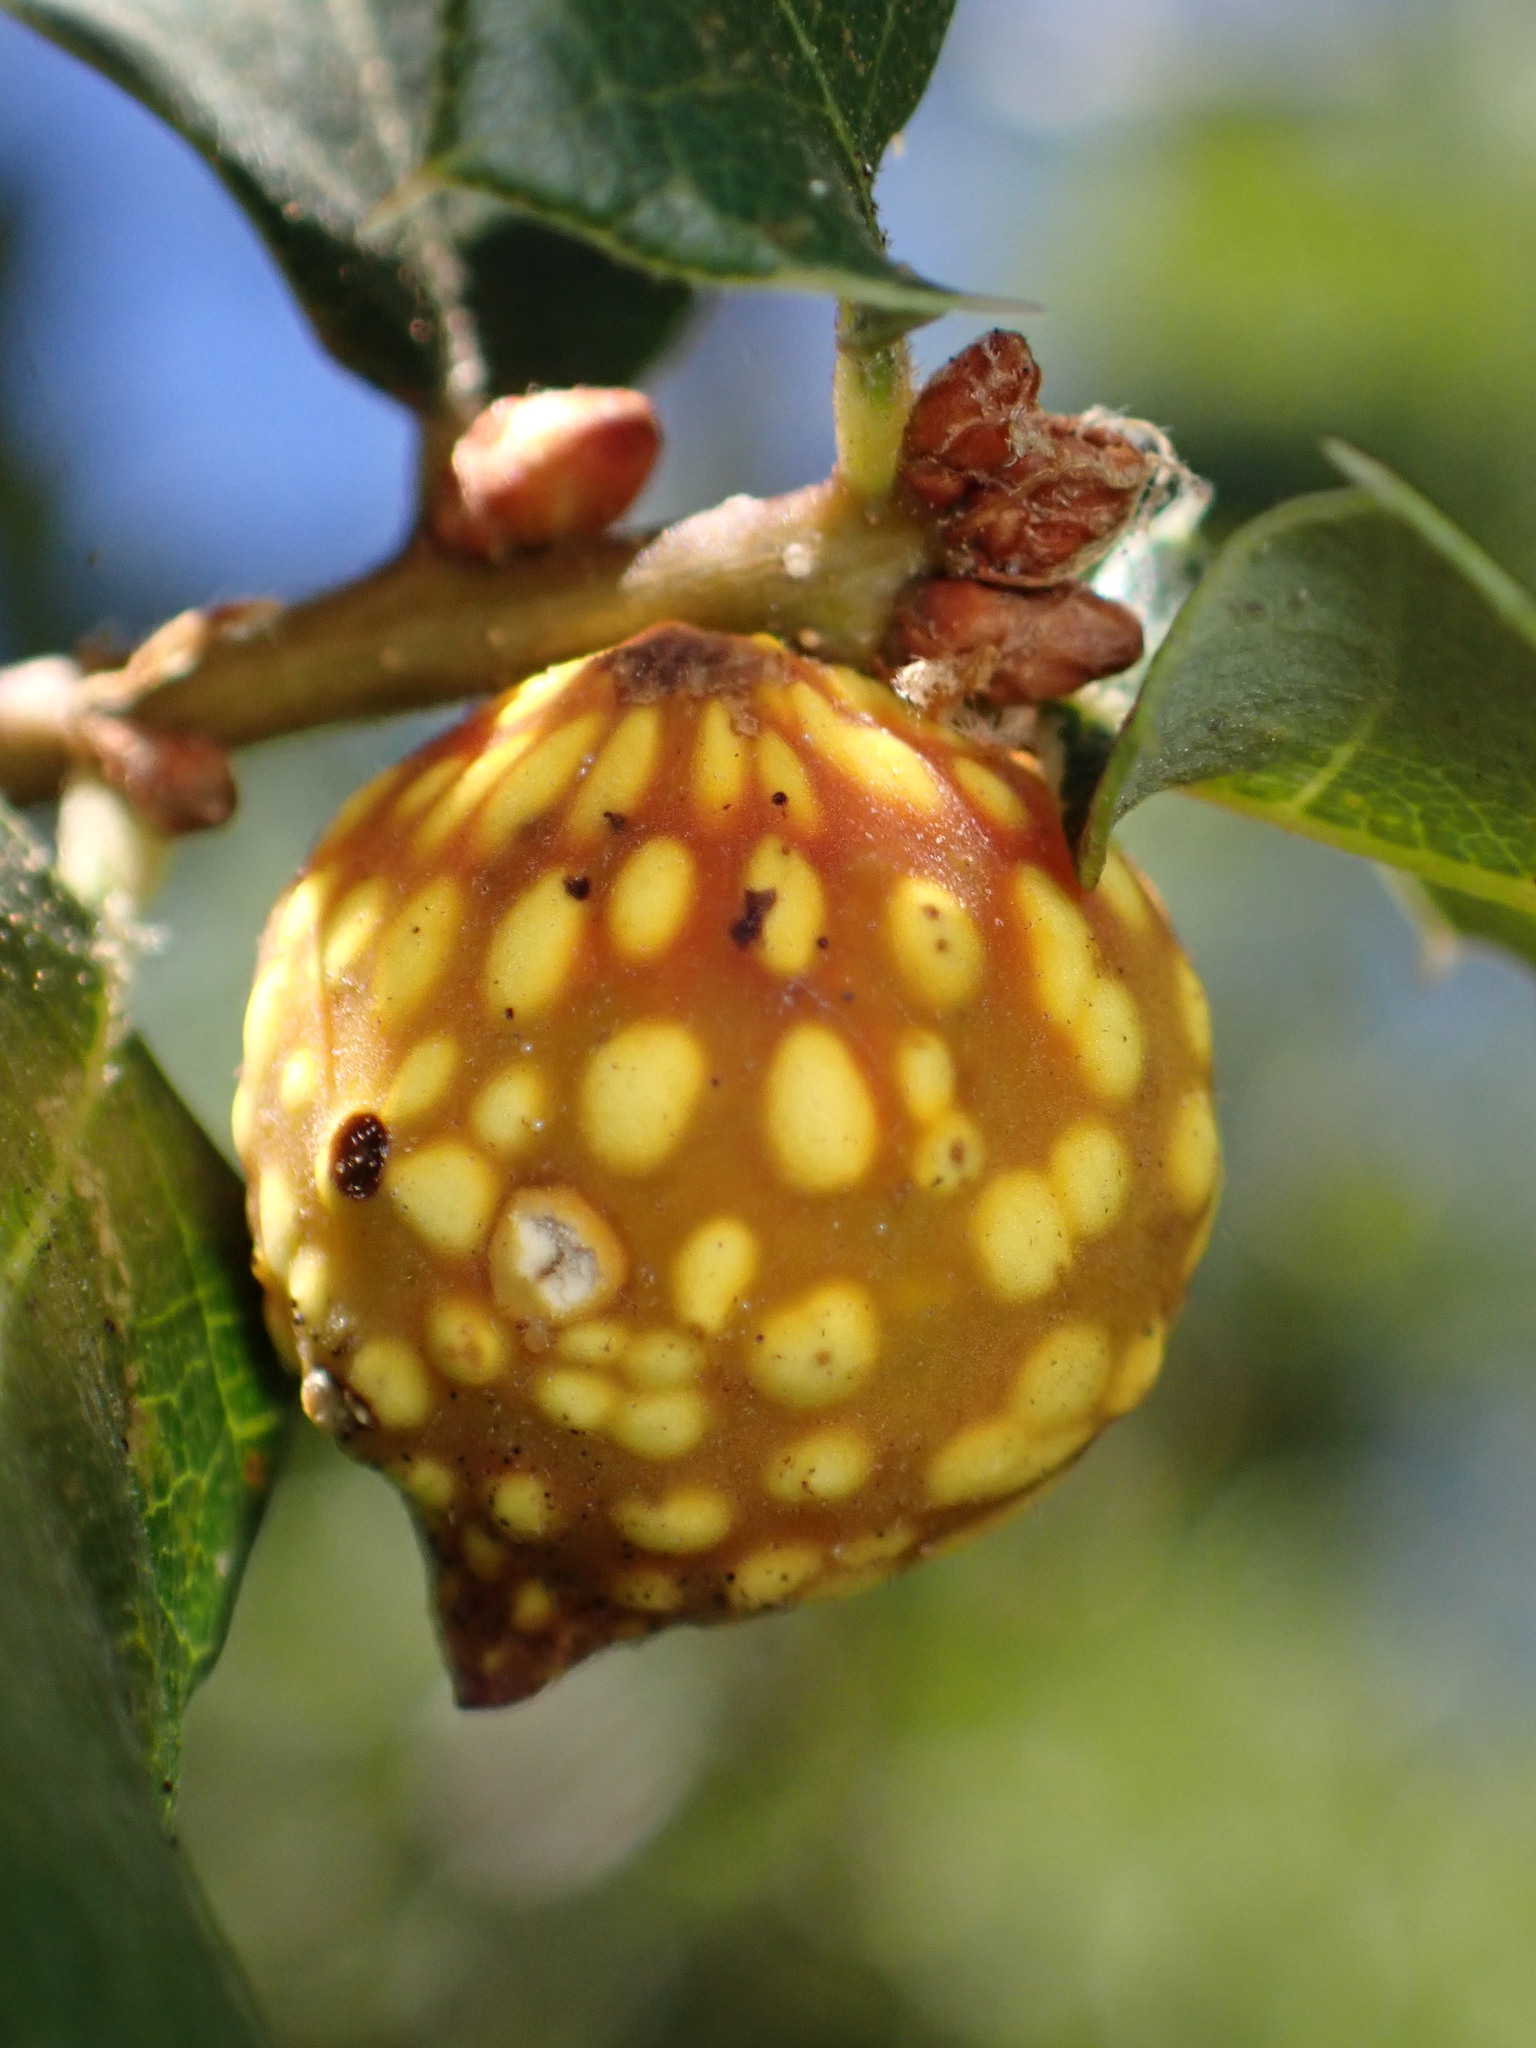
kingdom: Animalia
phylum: Arthropoda
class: Insecta
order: Hymenoptera
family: Cynipidae
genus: Burnettweldia
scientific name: Burnettweldia
